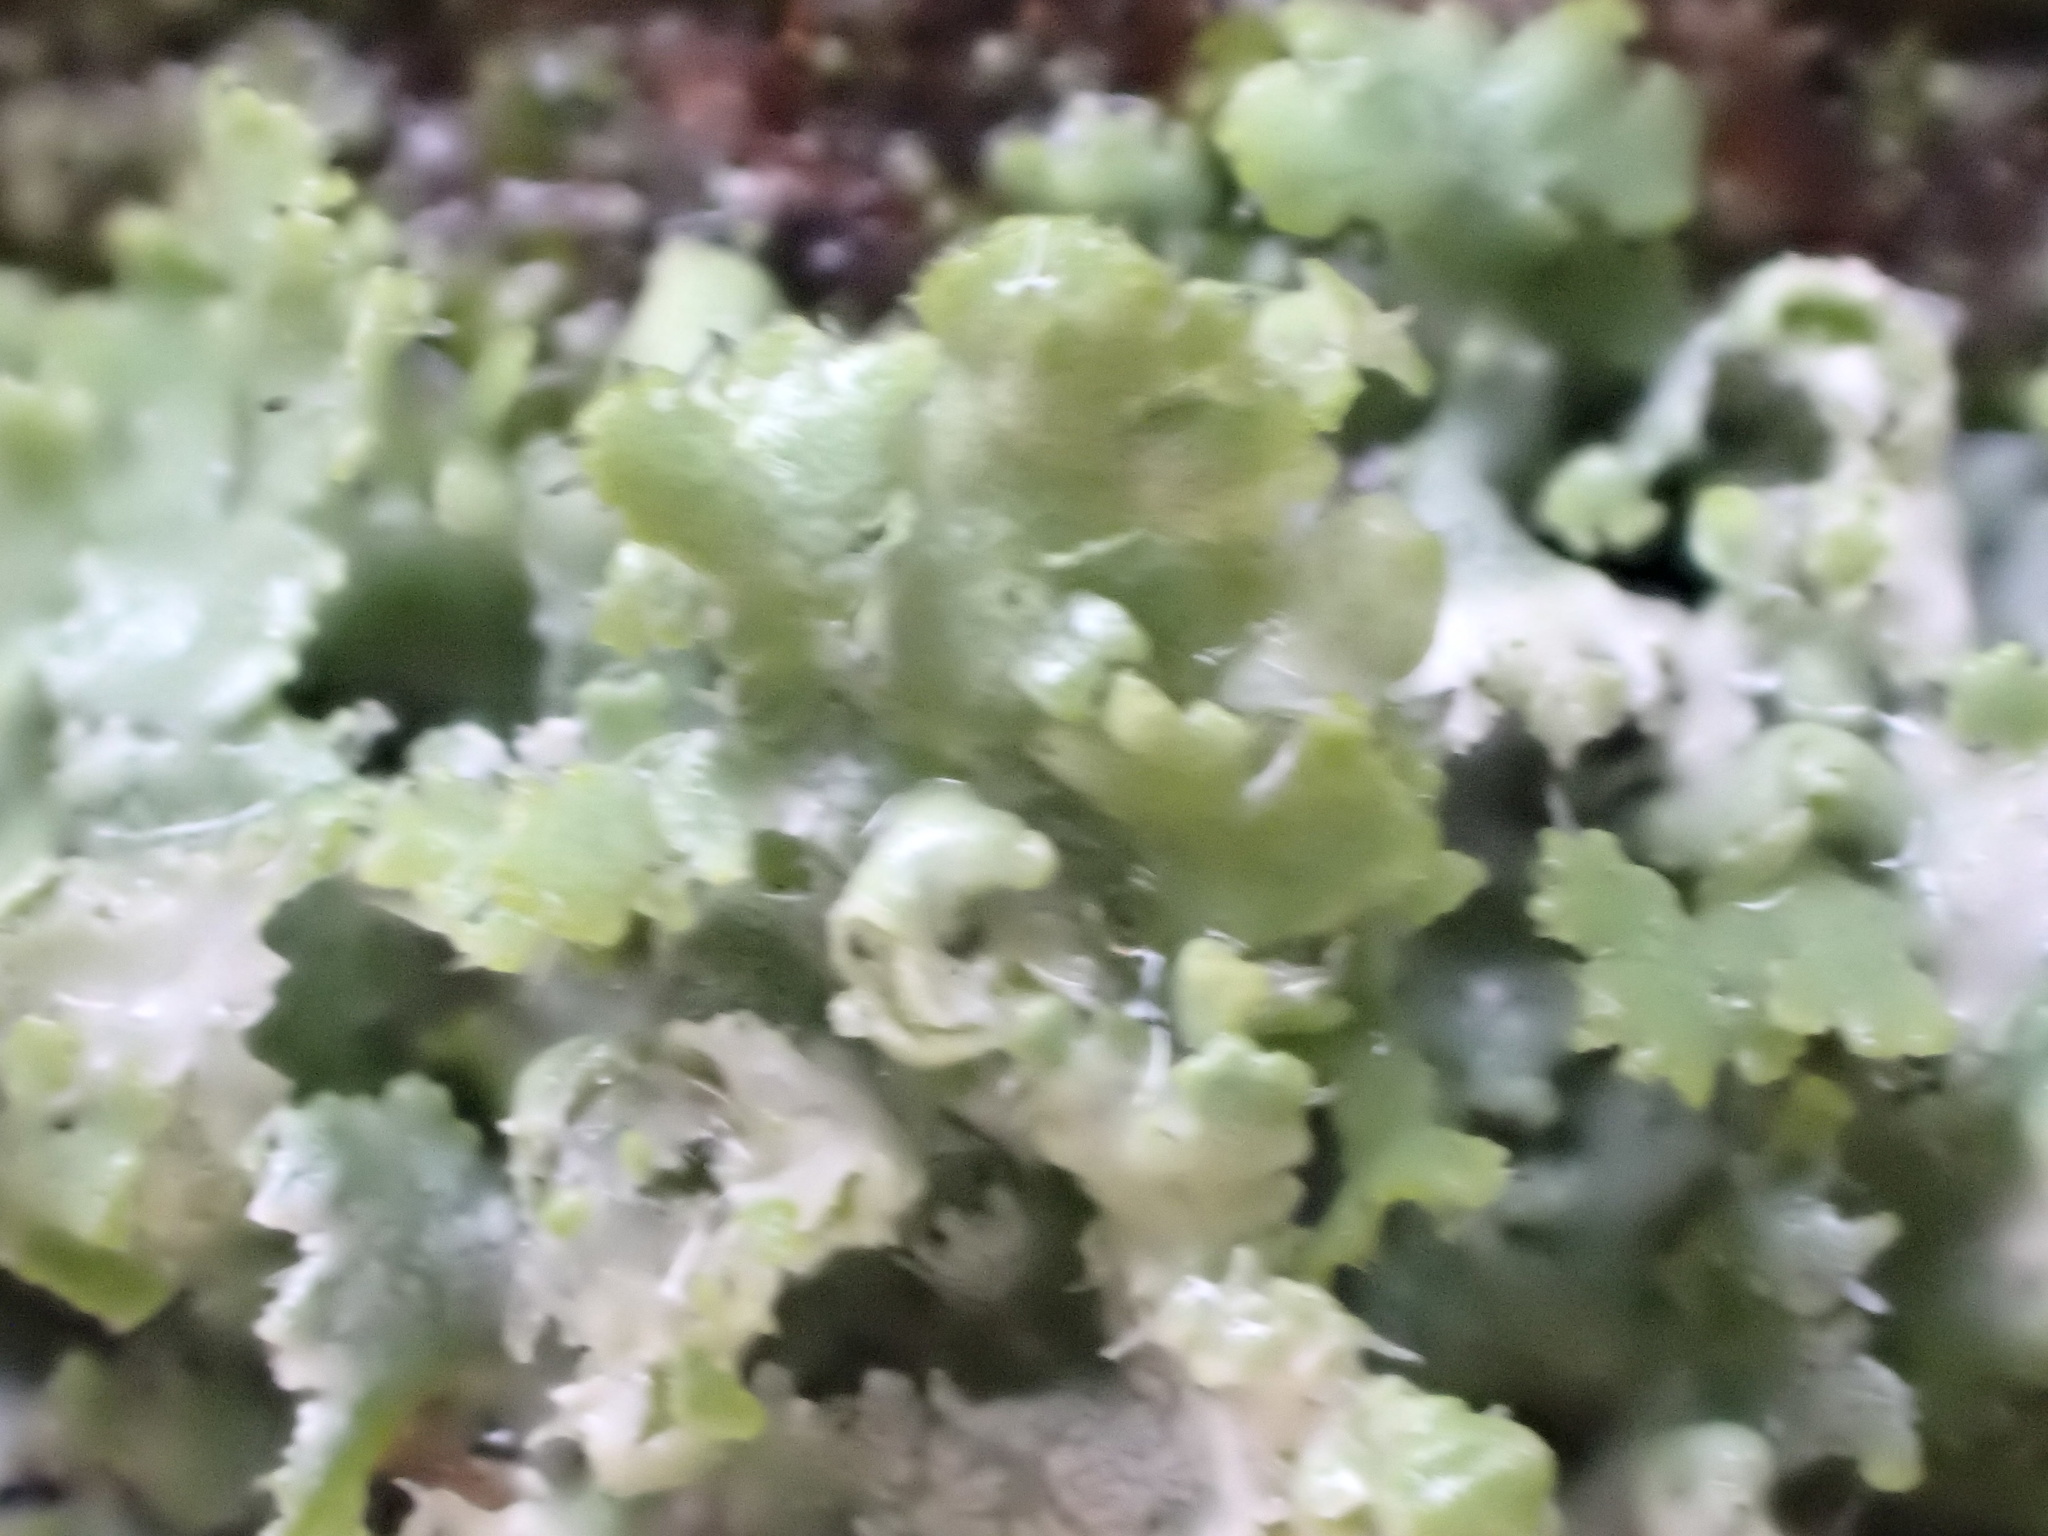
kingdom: Fungi
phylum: Ascomycota
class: Lecanoromycetes
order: Caliciales
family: Physciaceae
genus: Physcia
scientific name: Physcia adscendens
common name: Hooded rosette lichen
